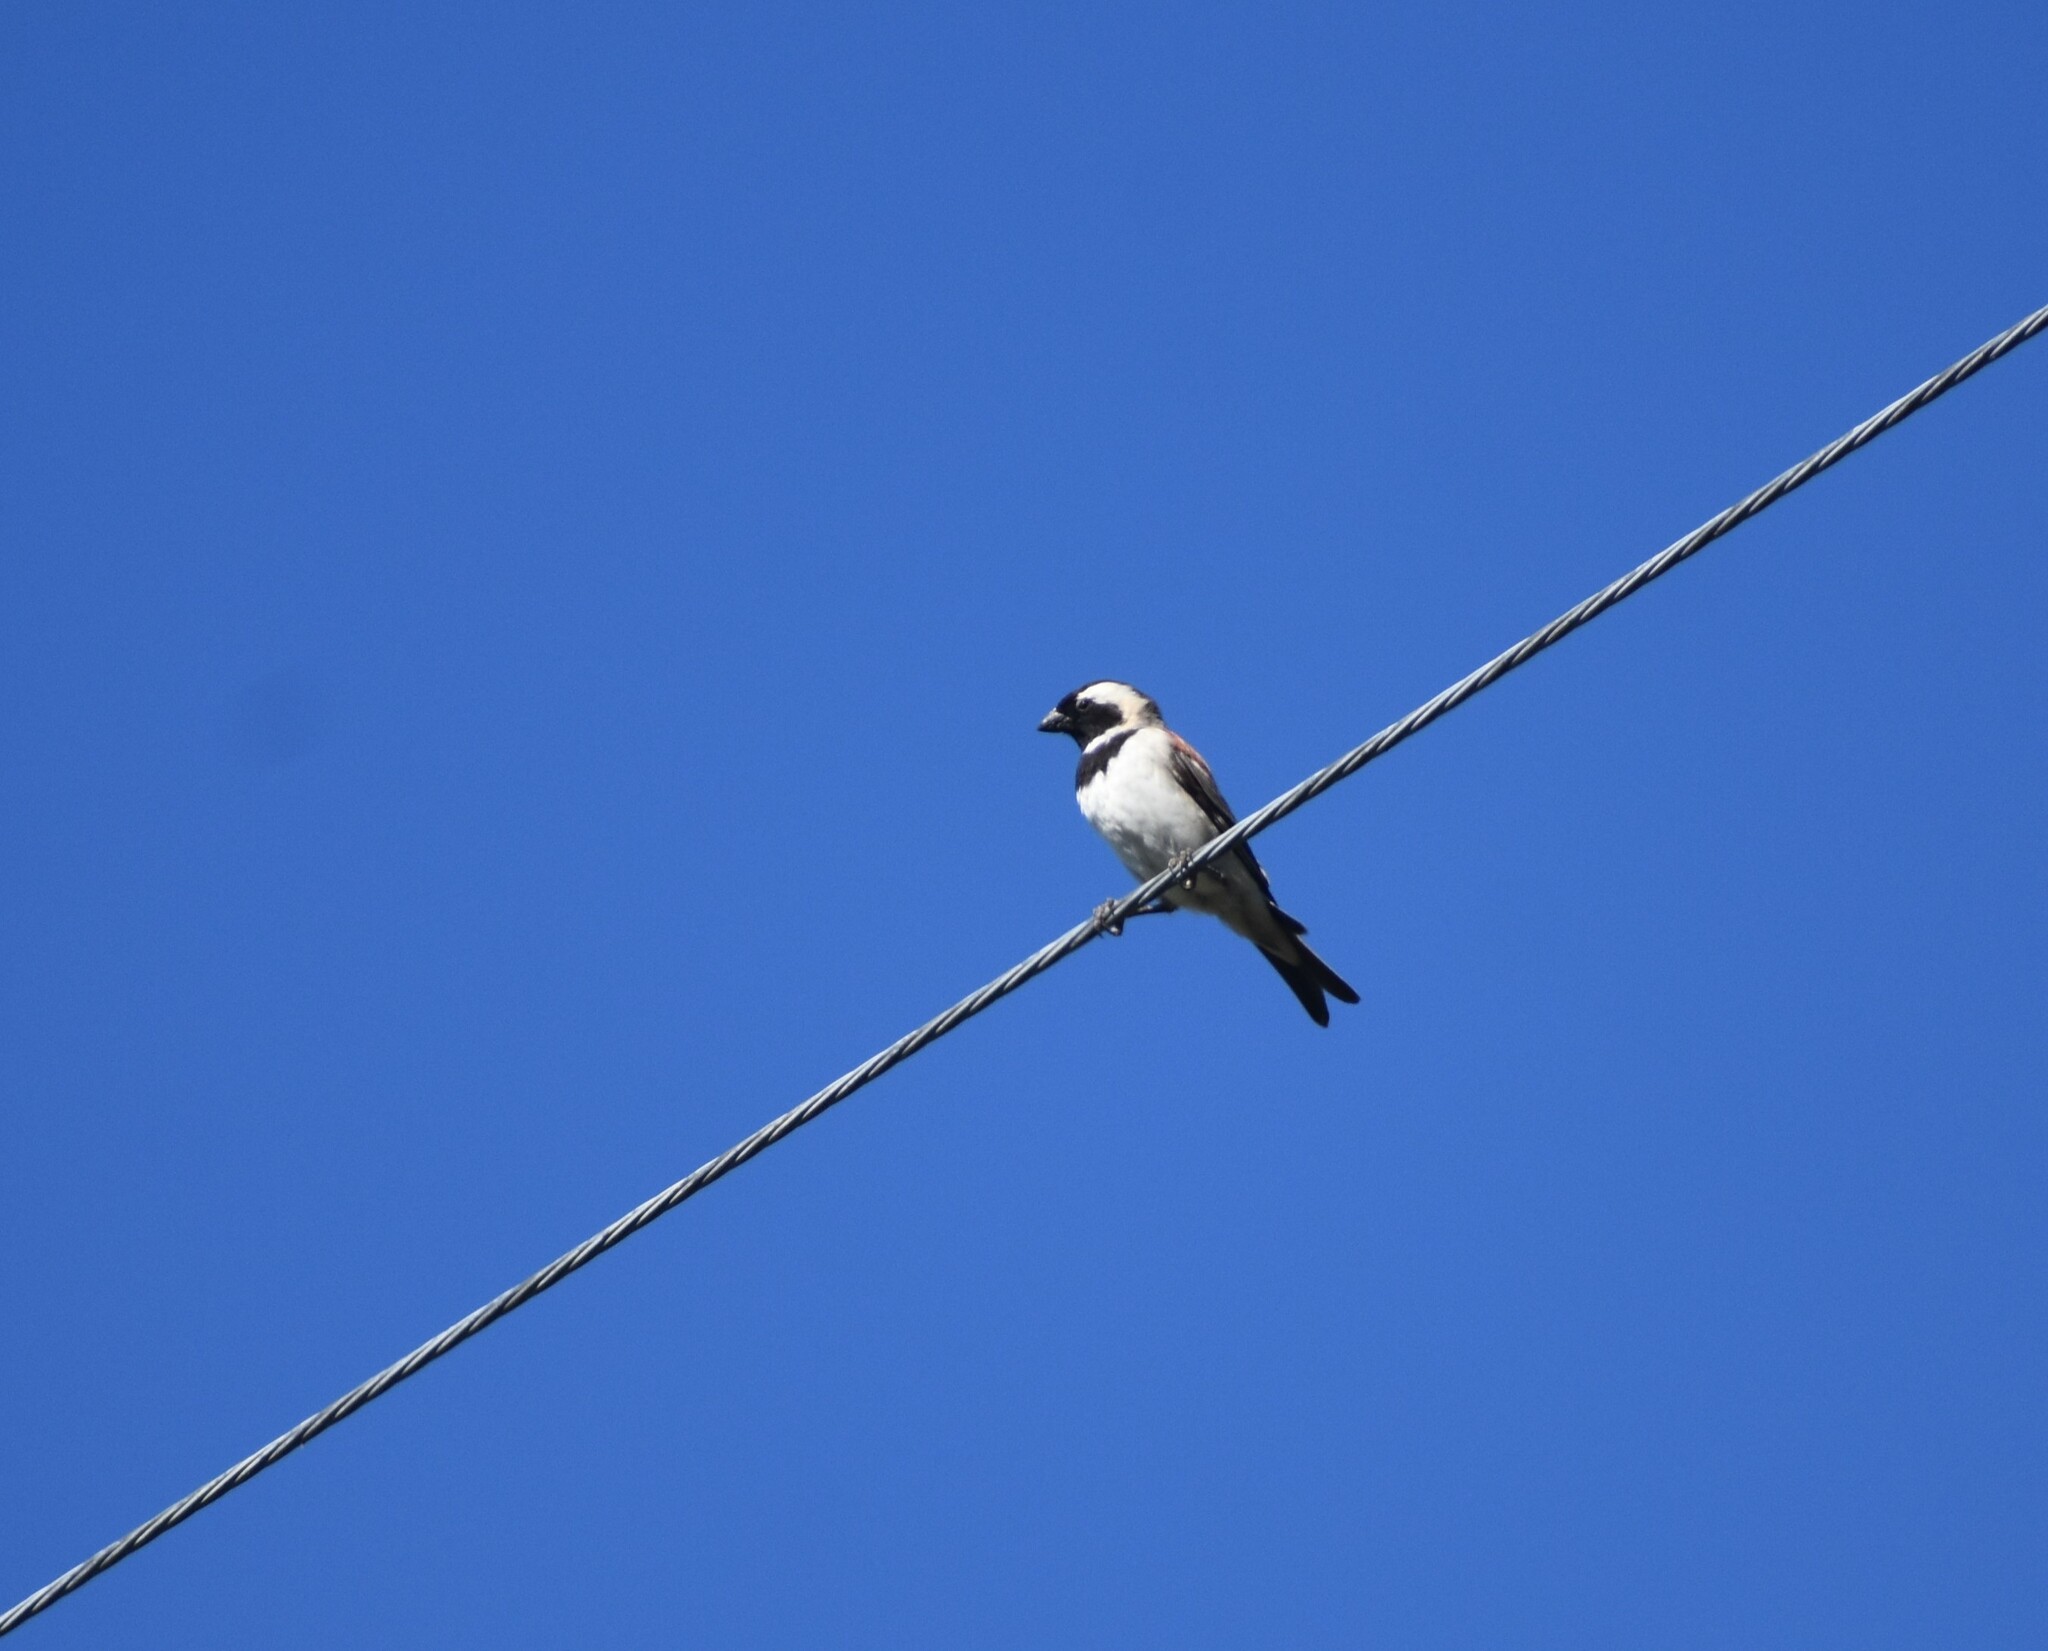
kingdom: Animalia
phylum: Chordata
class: Aves
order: Passeriformes
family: Passeridae
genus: Passer
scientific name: Passer melanurus
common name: Cape sparrow
